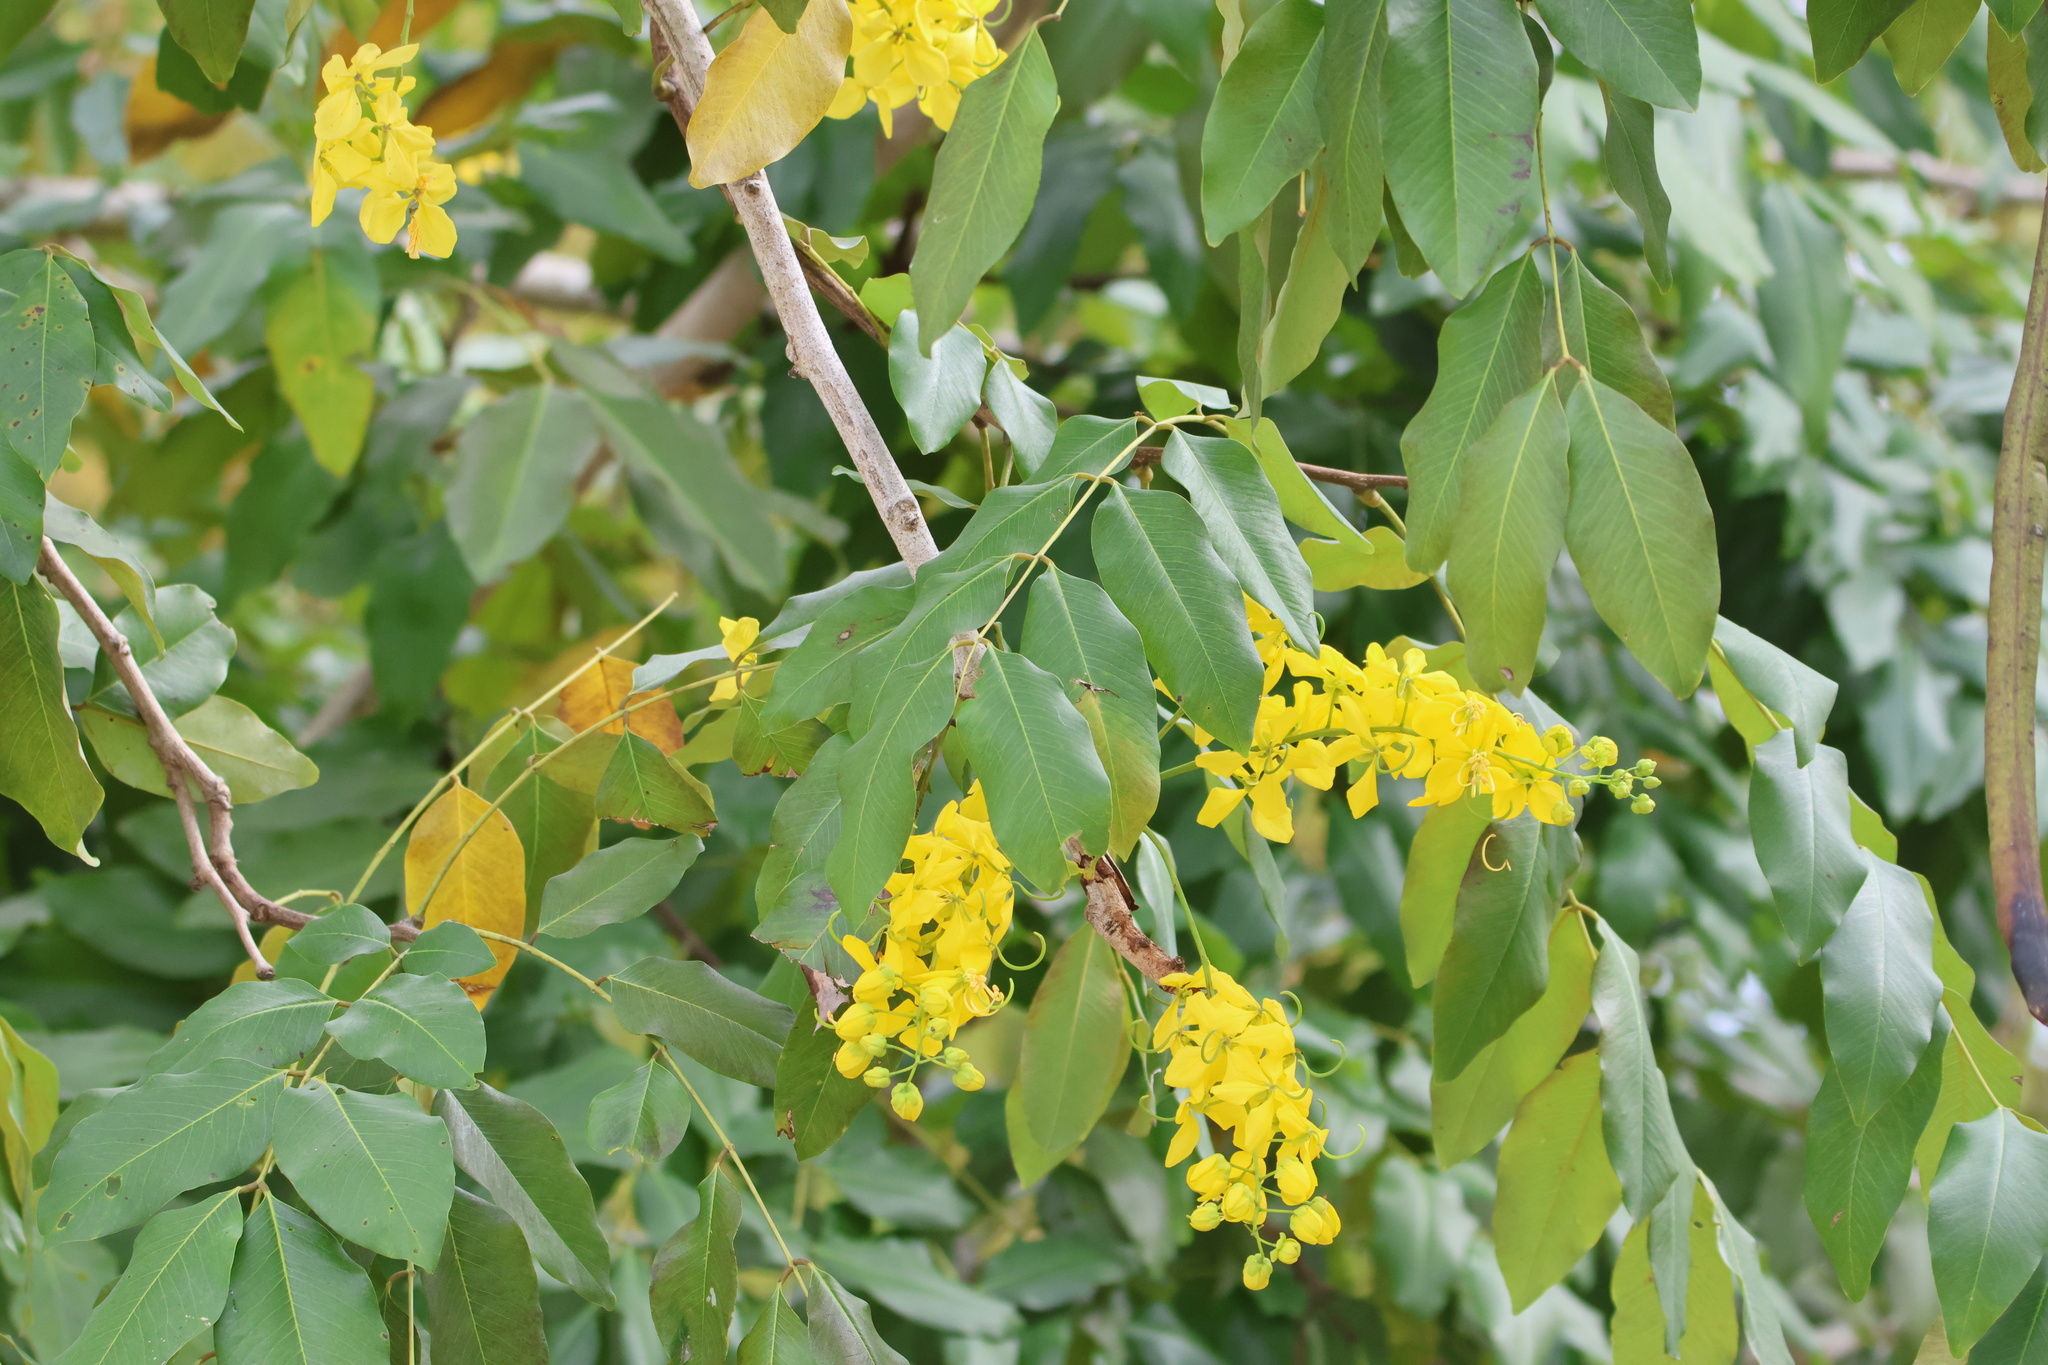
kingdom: Plantae
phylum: Tracheophyta
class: Magnoliopsida
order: Fabales
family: Fabaceae
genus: Cassia
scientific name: Cassia fistula
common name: Golden shower
